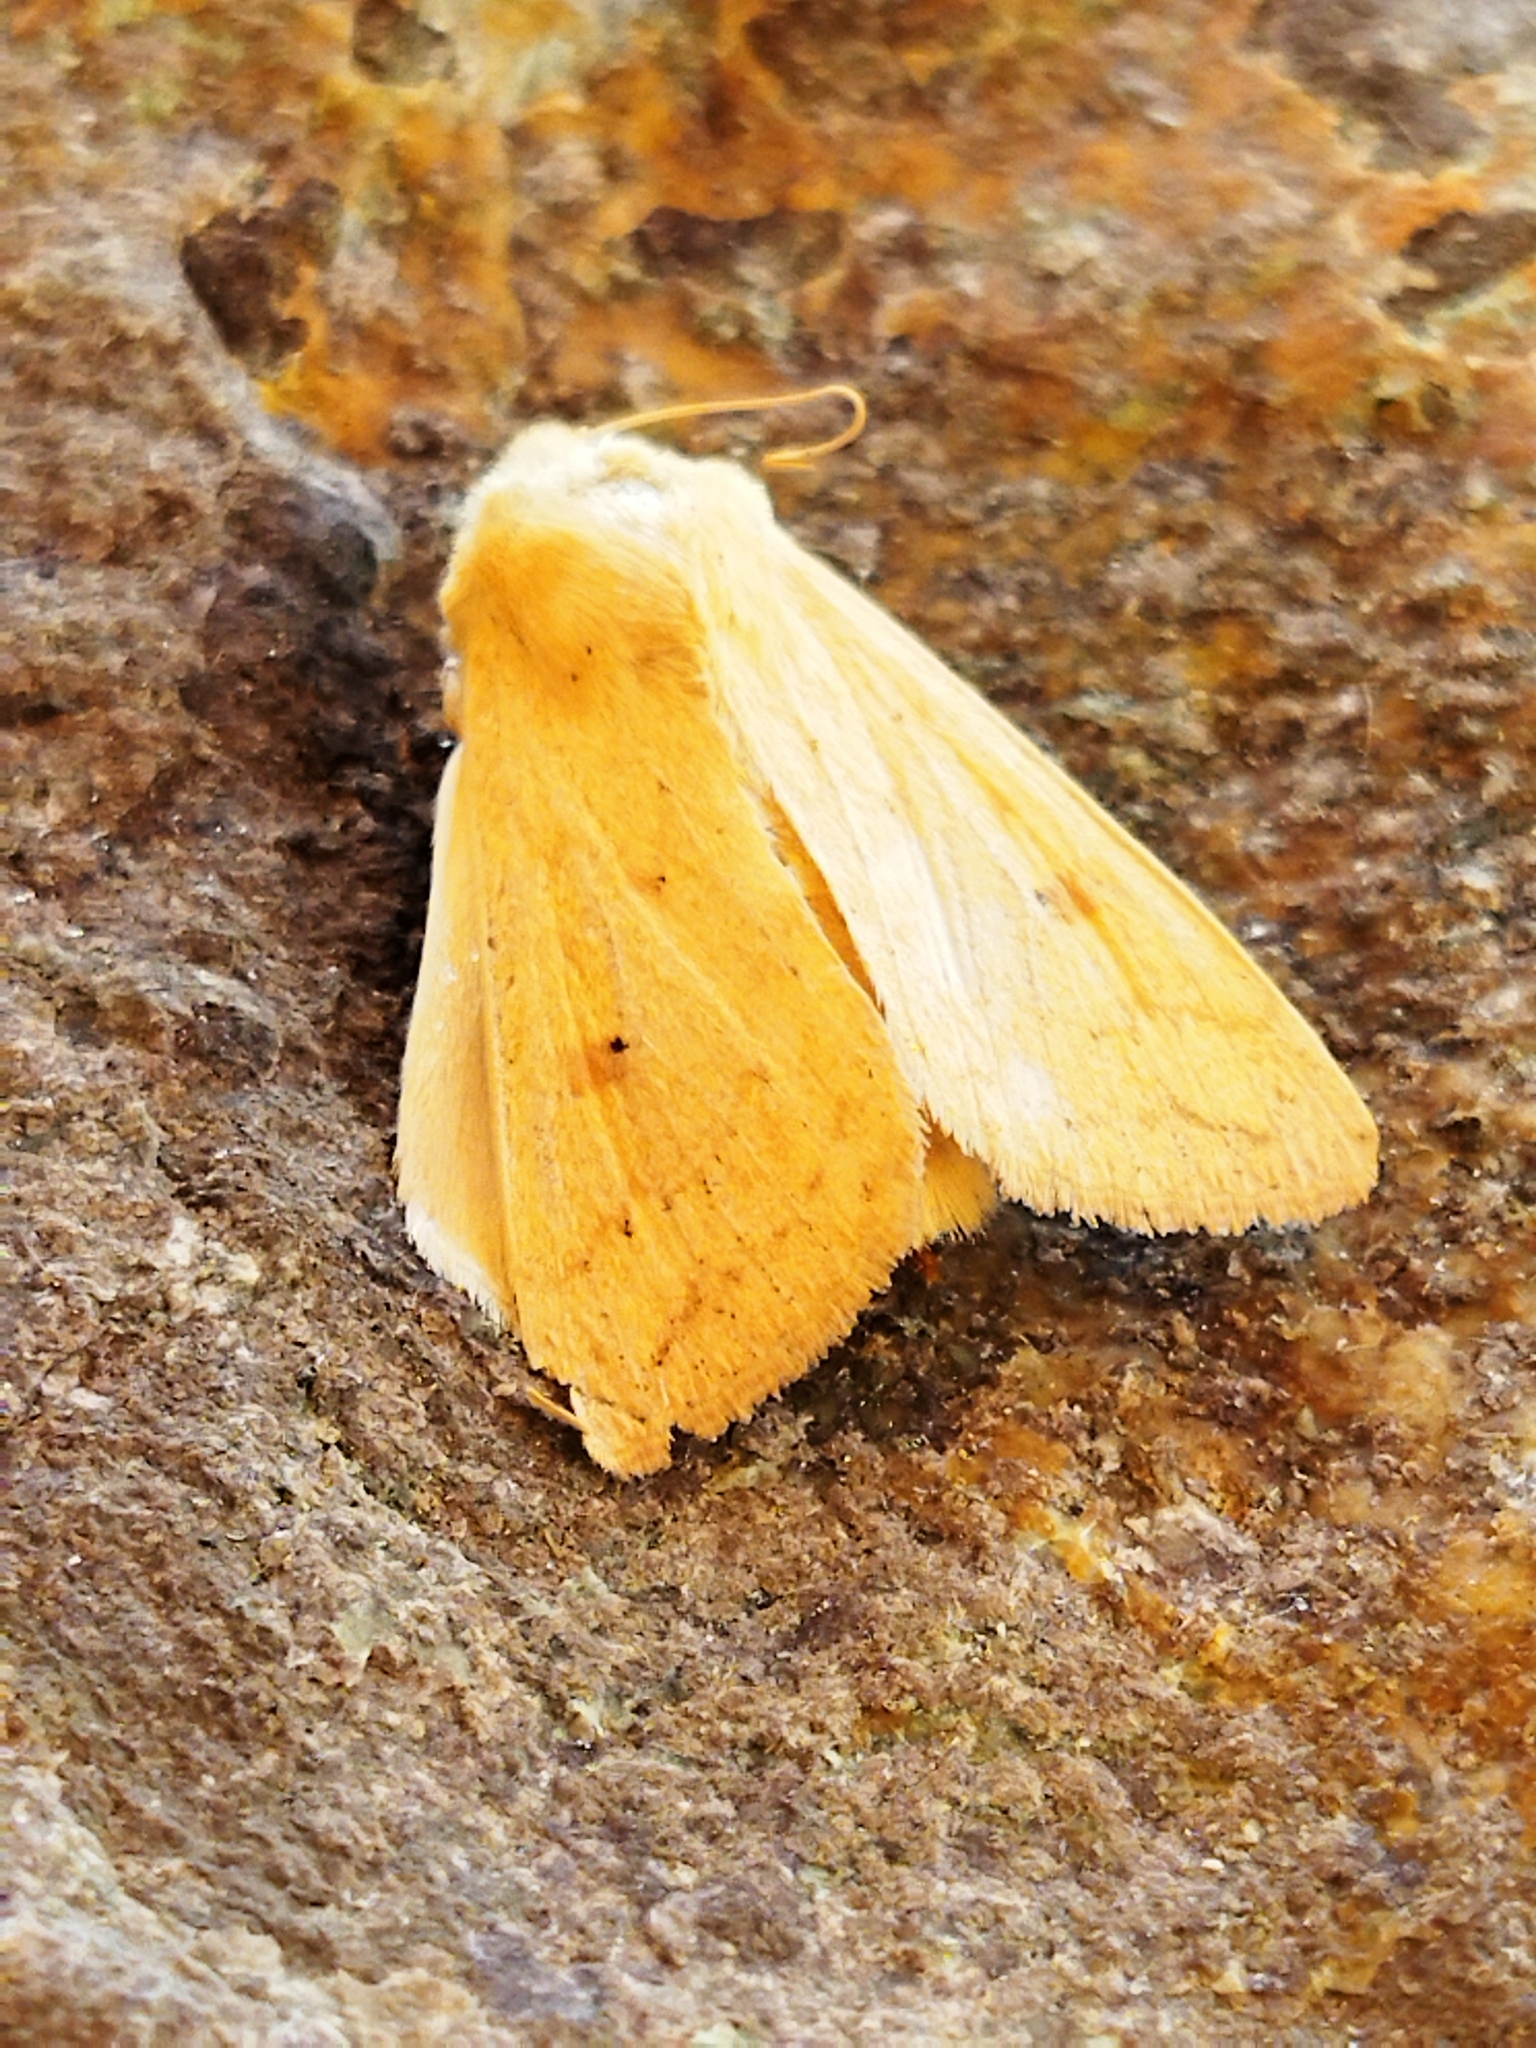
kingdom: Animalia
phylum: Arthropoda
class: Insecta
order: Lepidoptera
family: Noctuidae
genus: Mythimna
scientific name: Mythimna vitellina
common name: Delicate
